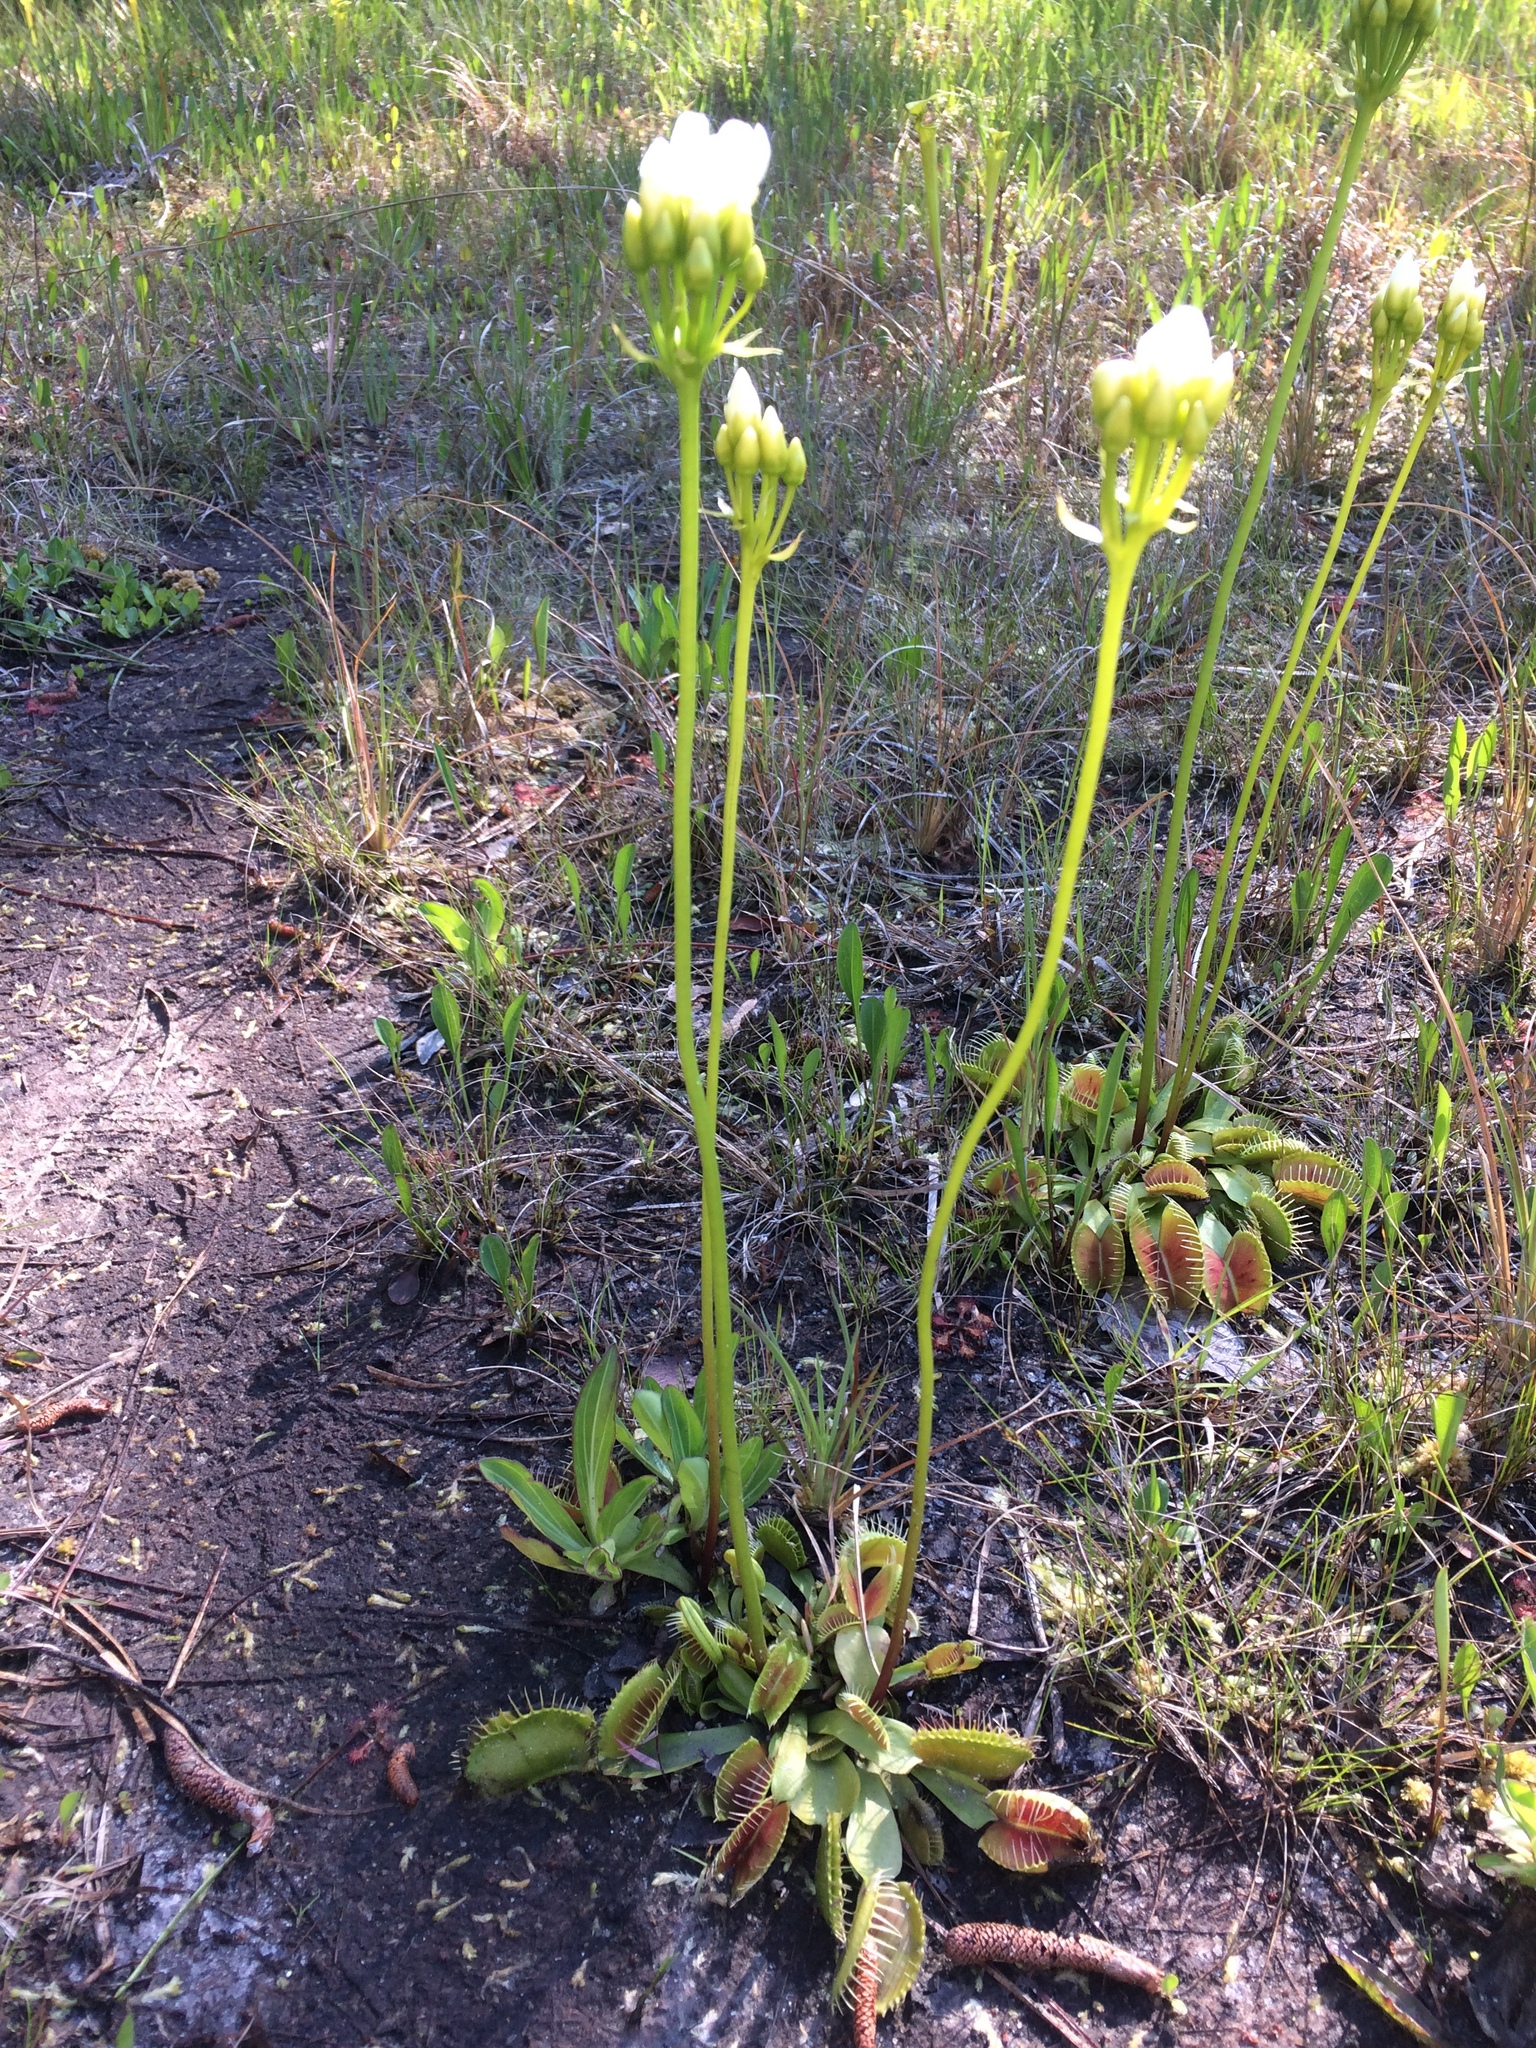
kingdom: Plantae
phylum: Tracheophyta
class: Magnoliopsida
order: Caryophyllales
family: Droseraceae
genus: Dionaea
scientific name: Dionaea muscipula
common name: Venus flytrap
